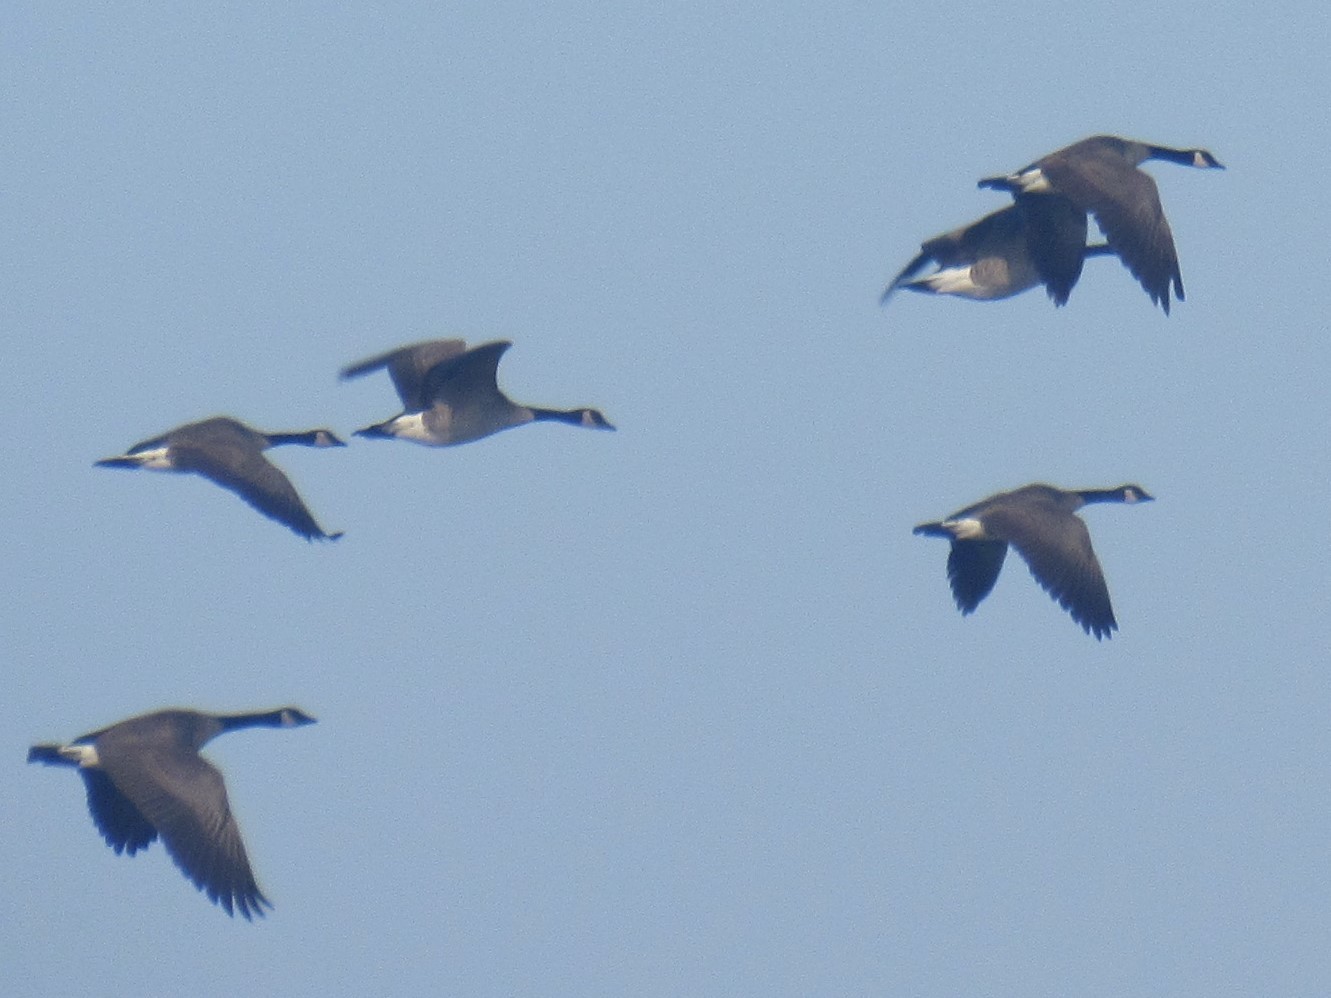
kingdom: Animalia
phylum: Chordata
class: Aves
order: Anseriformes
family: Anatidae
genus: Branta
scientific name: Branta canadensis
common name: Canada goose
